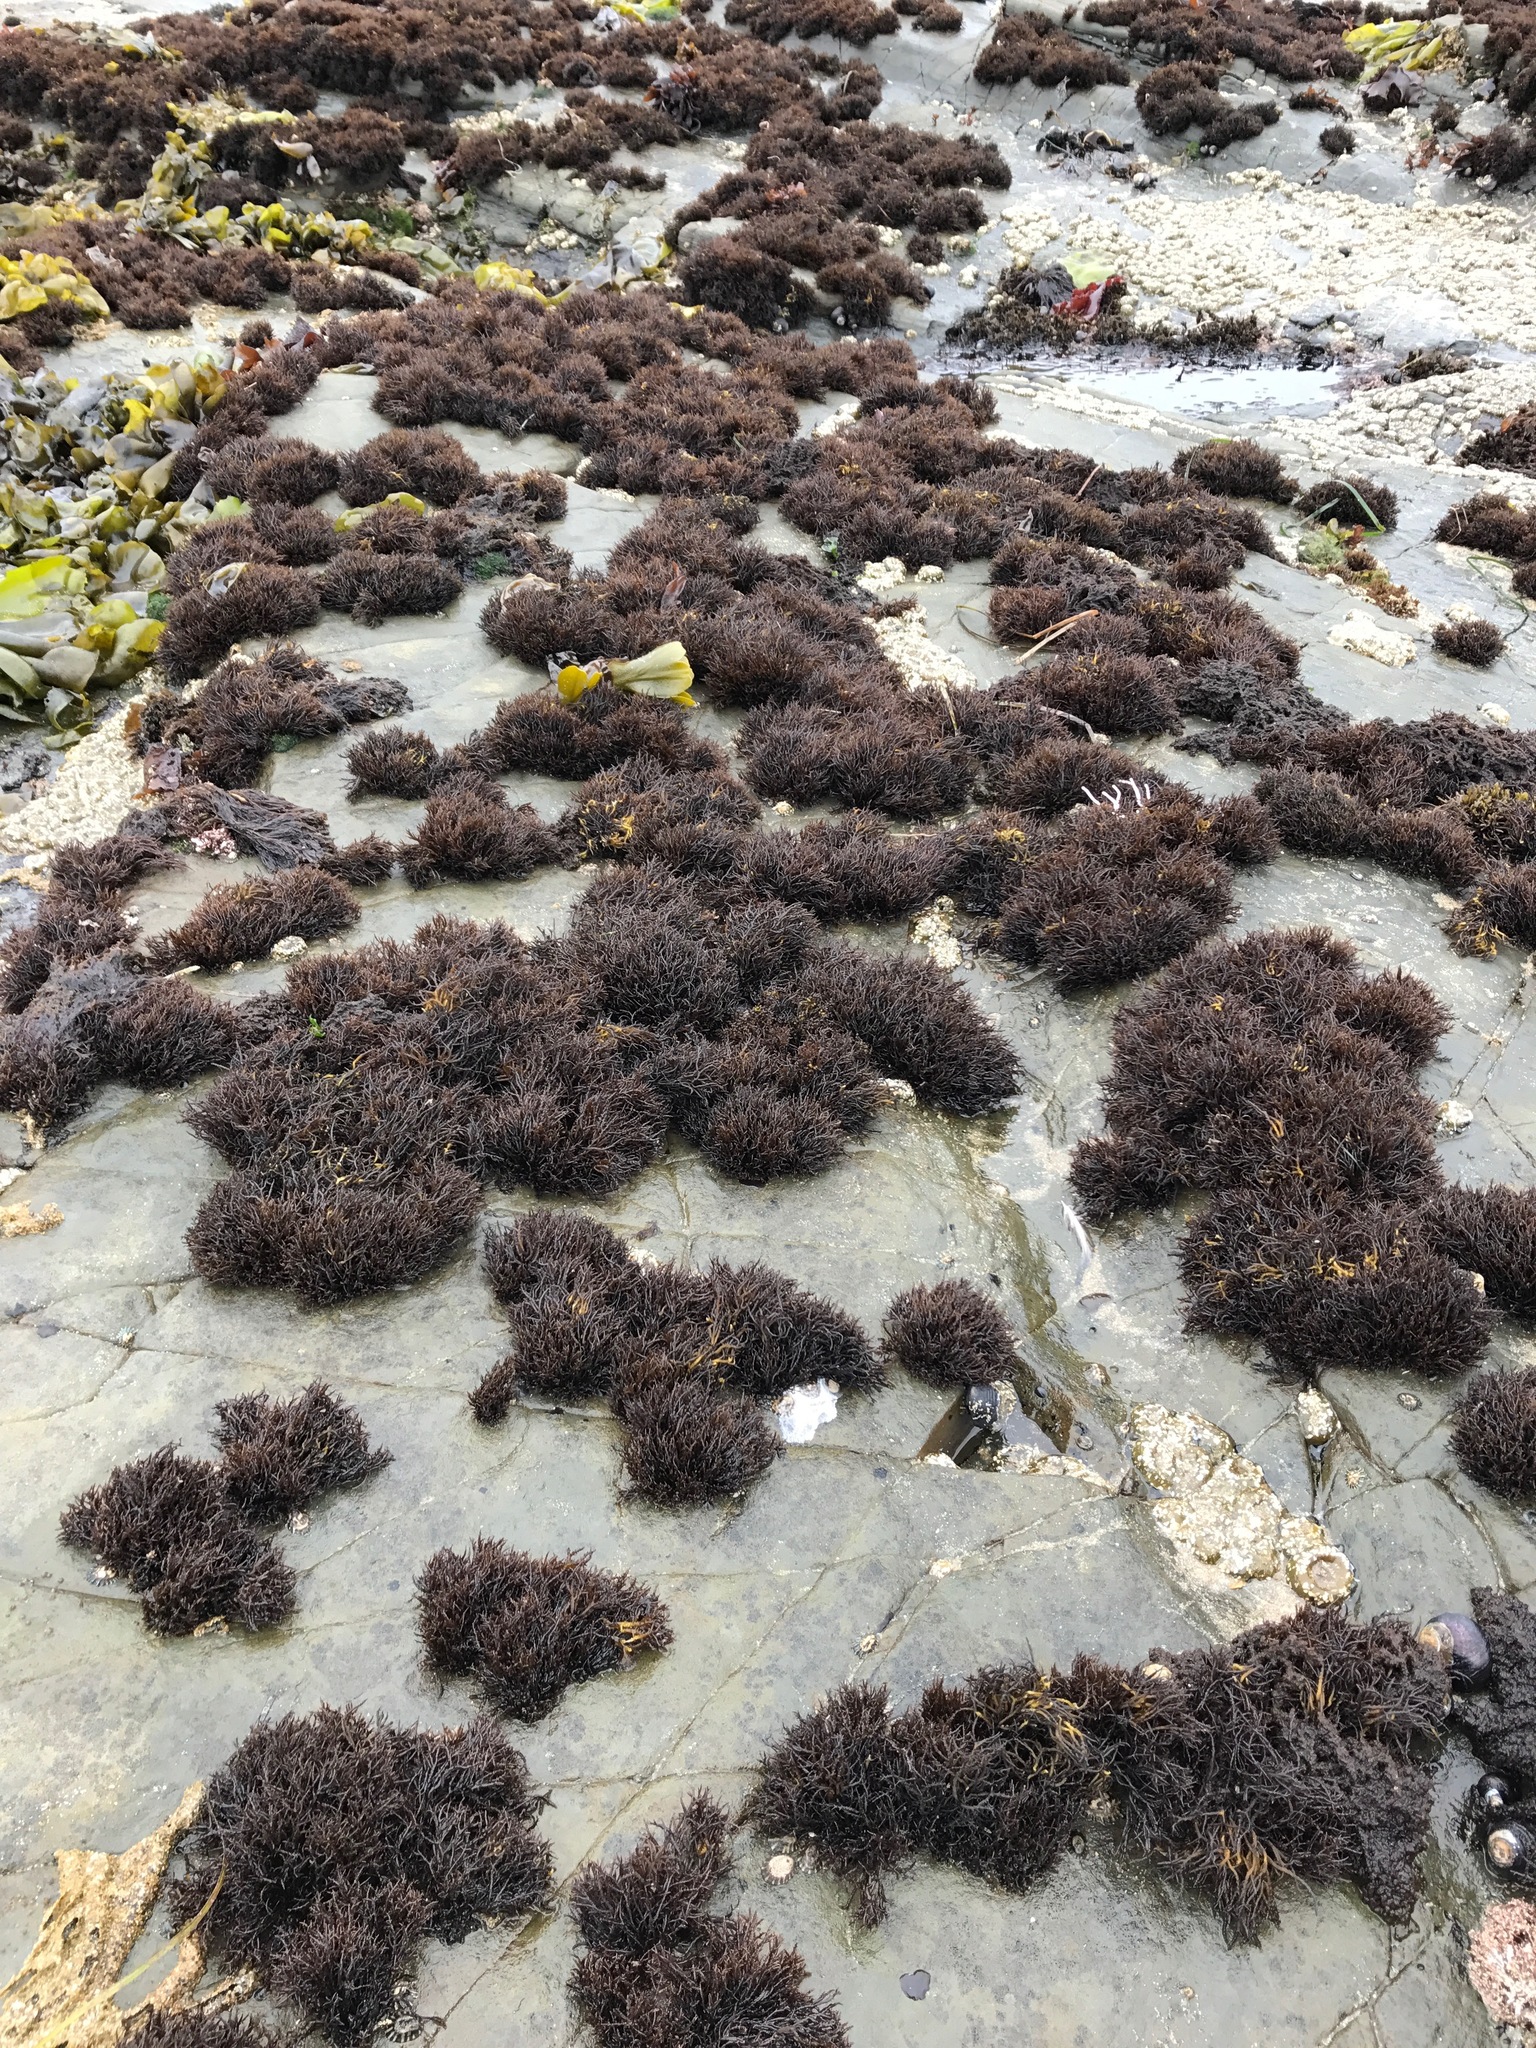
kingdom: Plantae
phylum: Rhodophyta
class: Florideophyceae
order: Gigartinales
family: Endocladiaceae
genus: Endocladia
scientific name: Endocladia muricata
